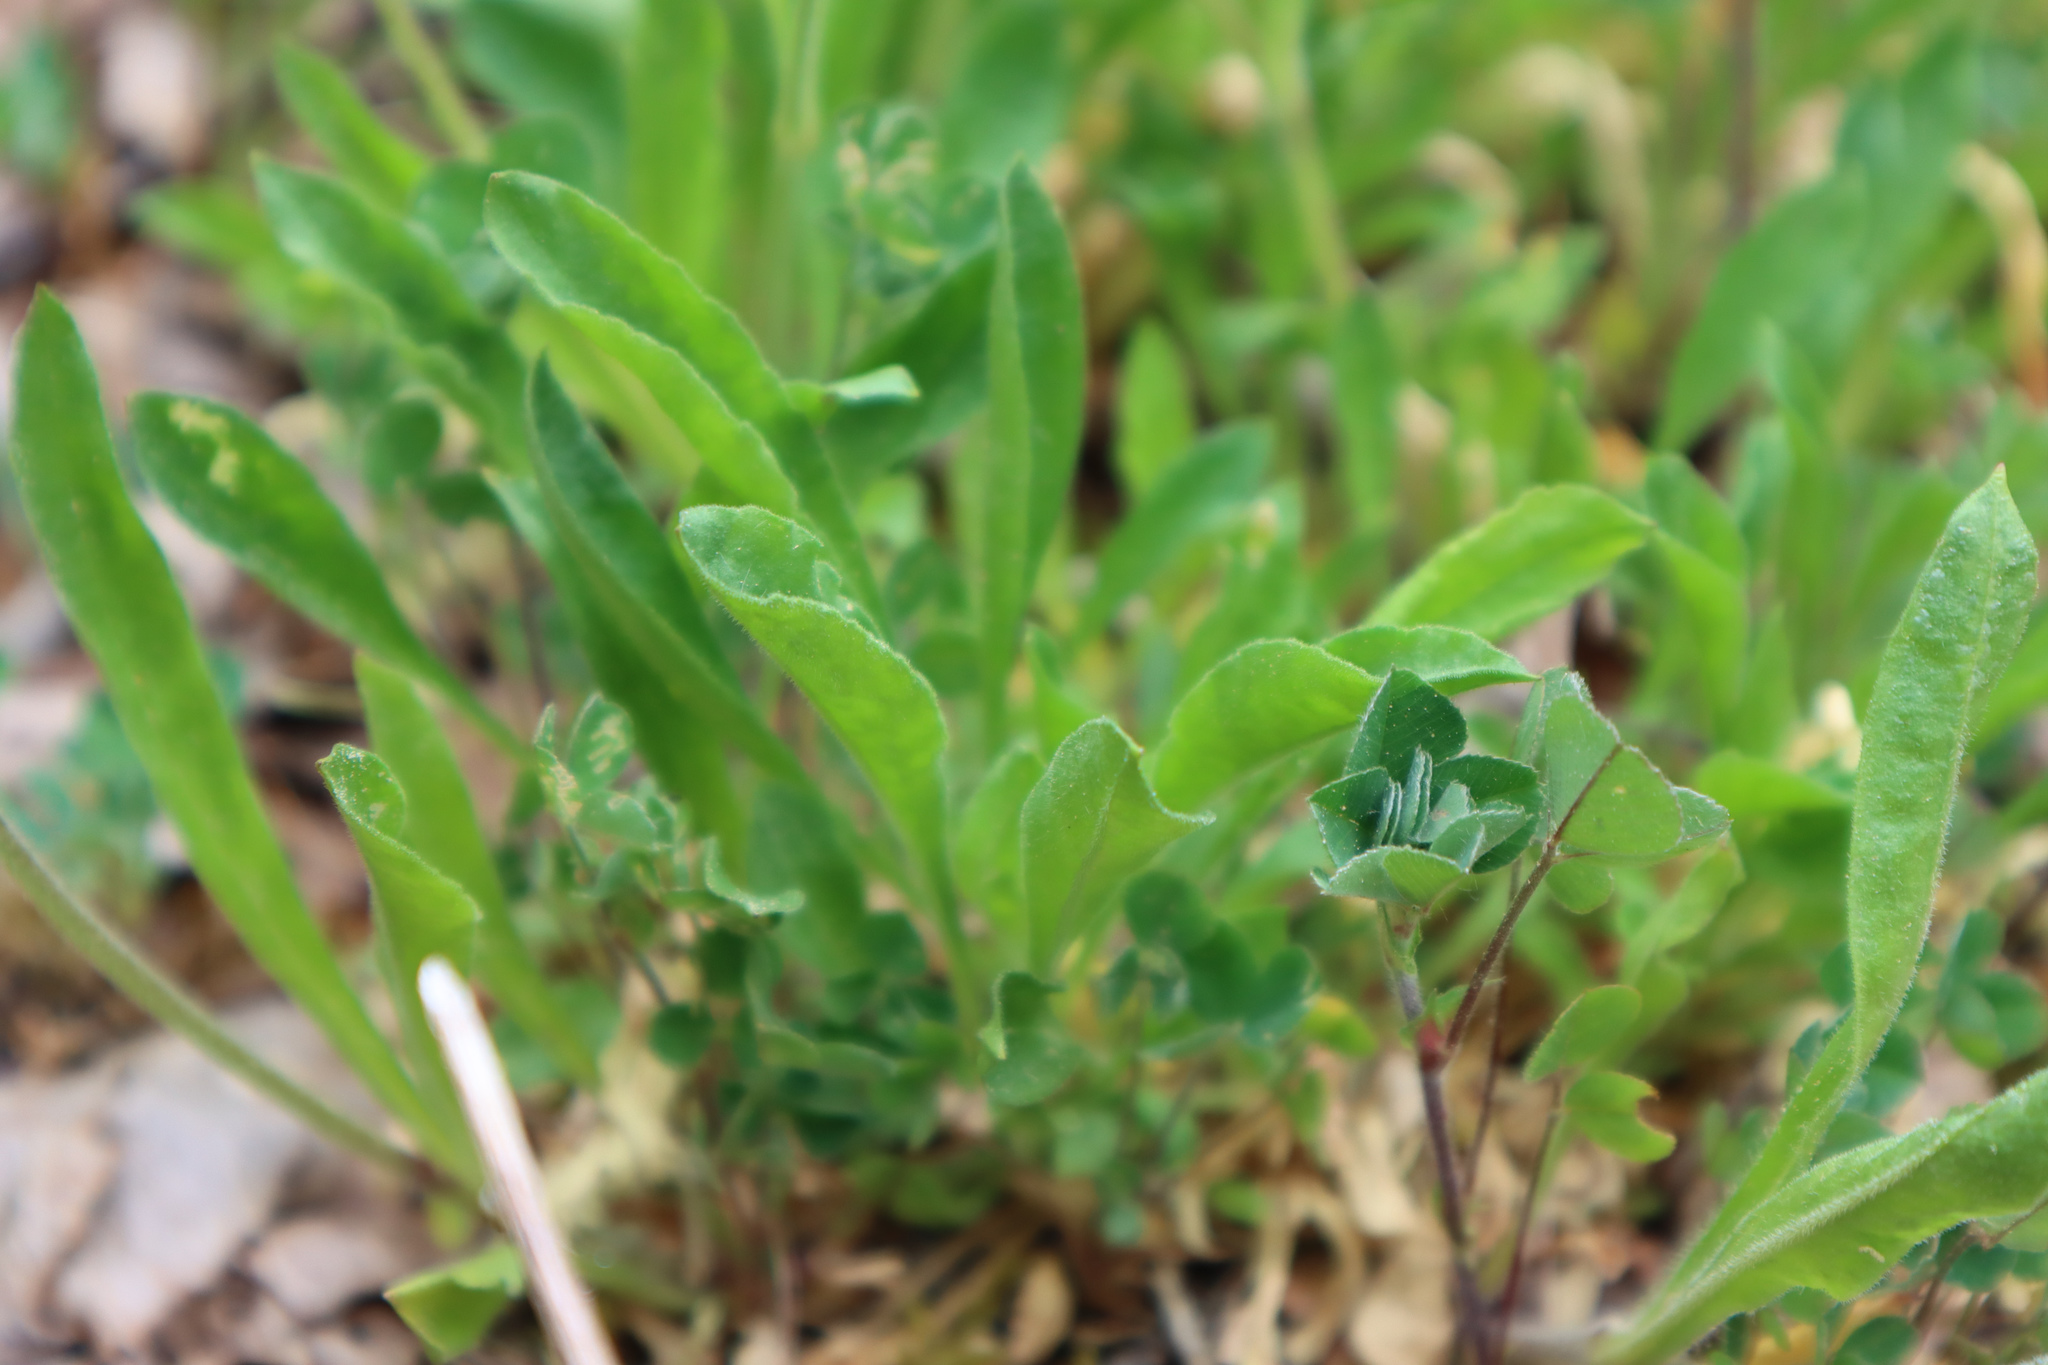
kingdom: Plantae
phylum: Tracheophyta
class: Magnoliopsida
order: Caryophyllales
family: Caryophyllaceae
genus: Silene
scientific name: Silene nutans
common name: Nottingham catchfly
